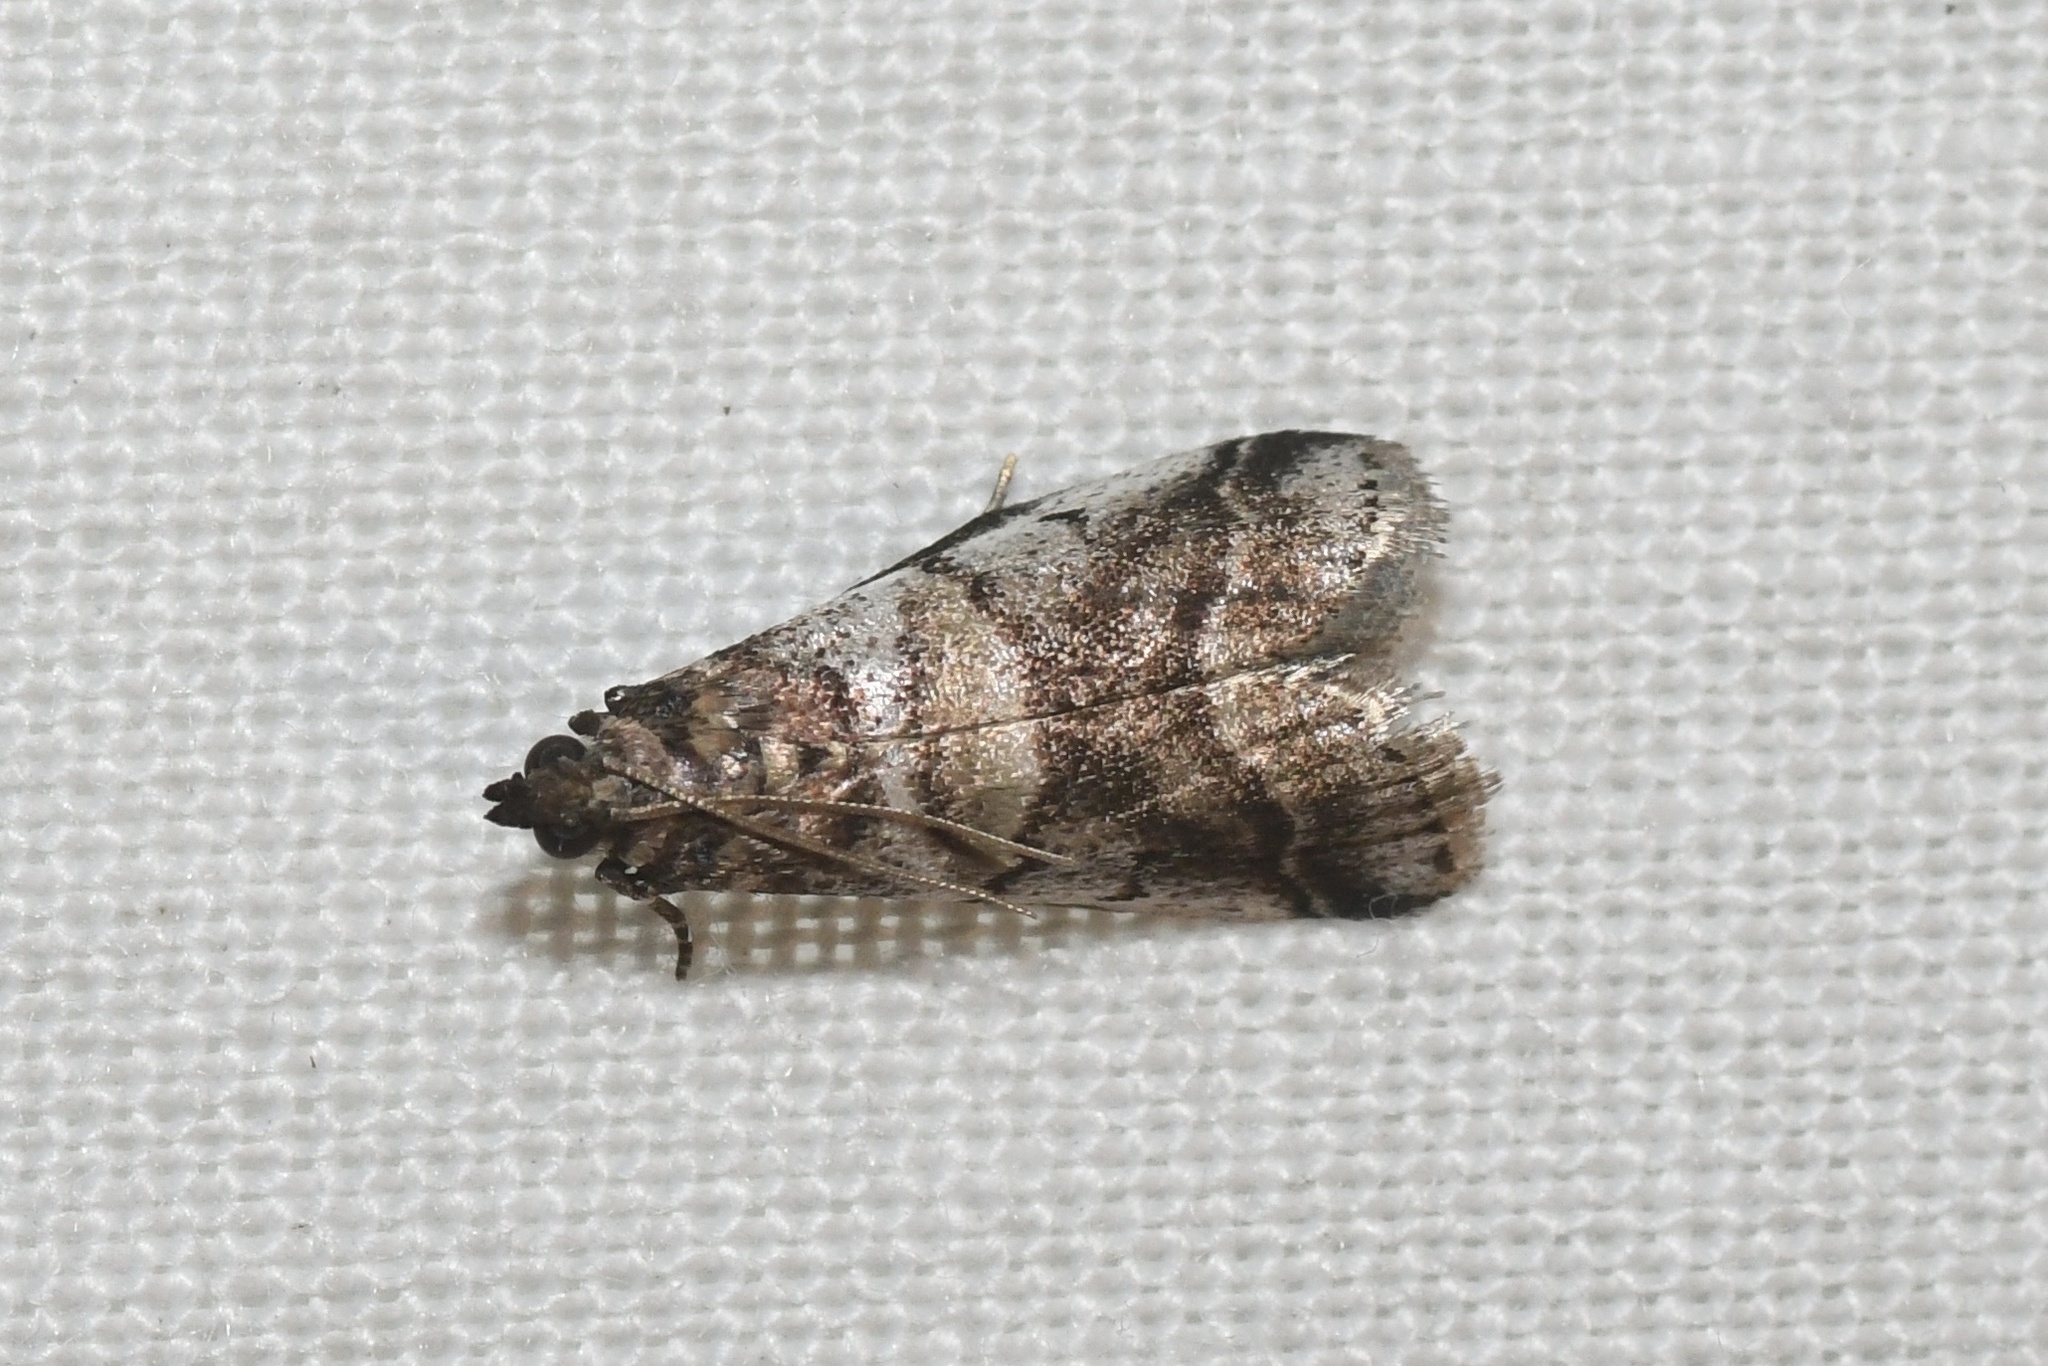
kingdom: Animalia
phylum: Arthropoda
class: Insecta
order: Lepidoptera
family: Pyralidae
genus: Acrobasis
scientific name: Acrobasis indigenella
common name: Leaf crumpler moth
